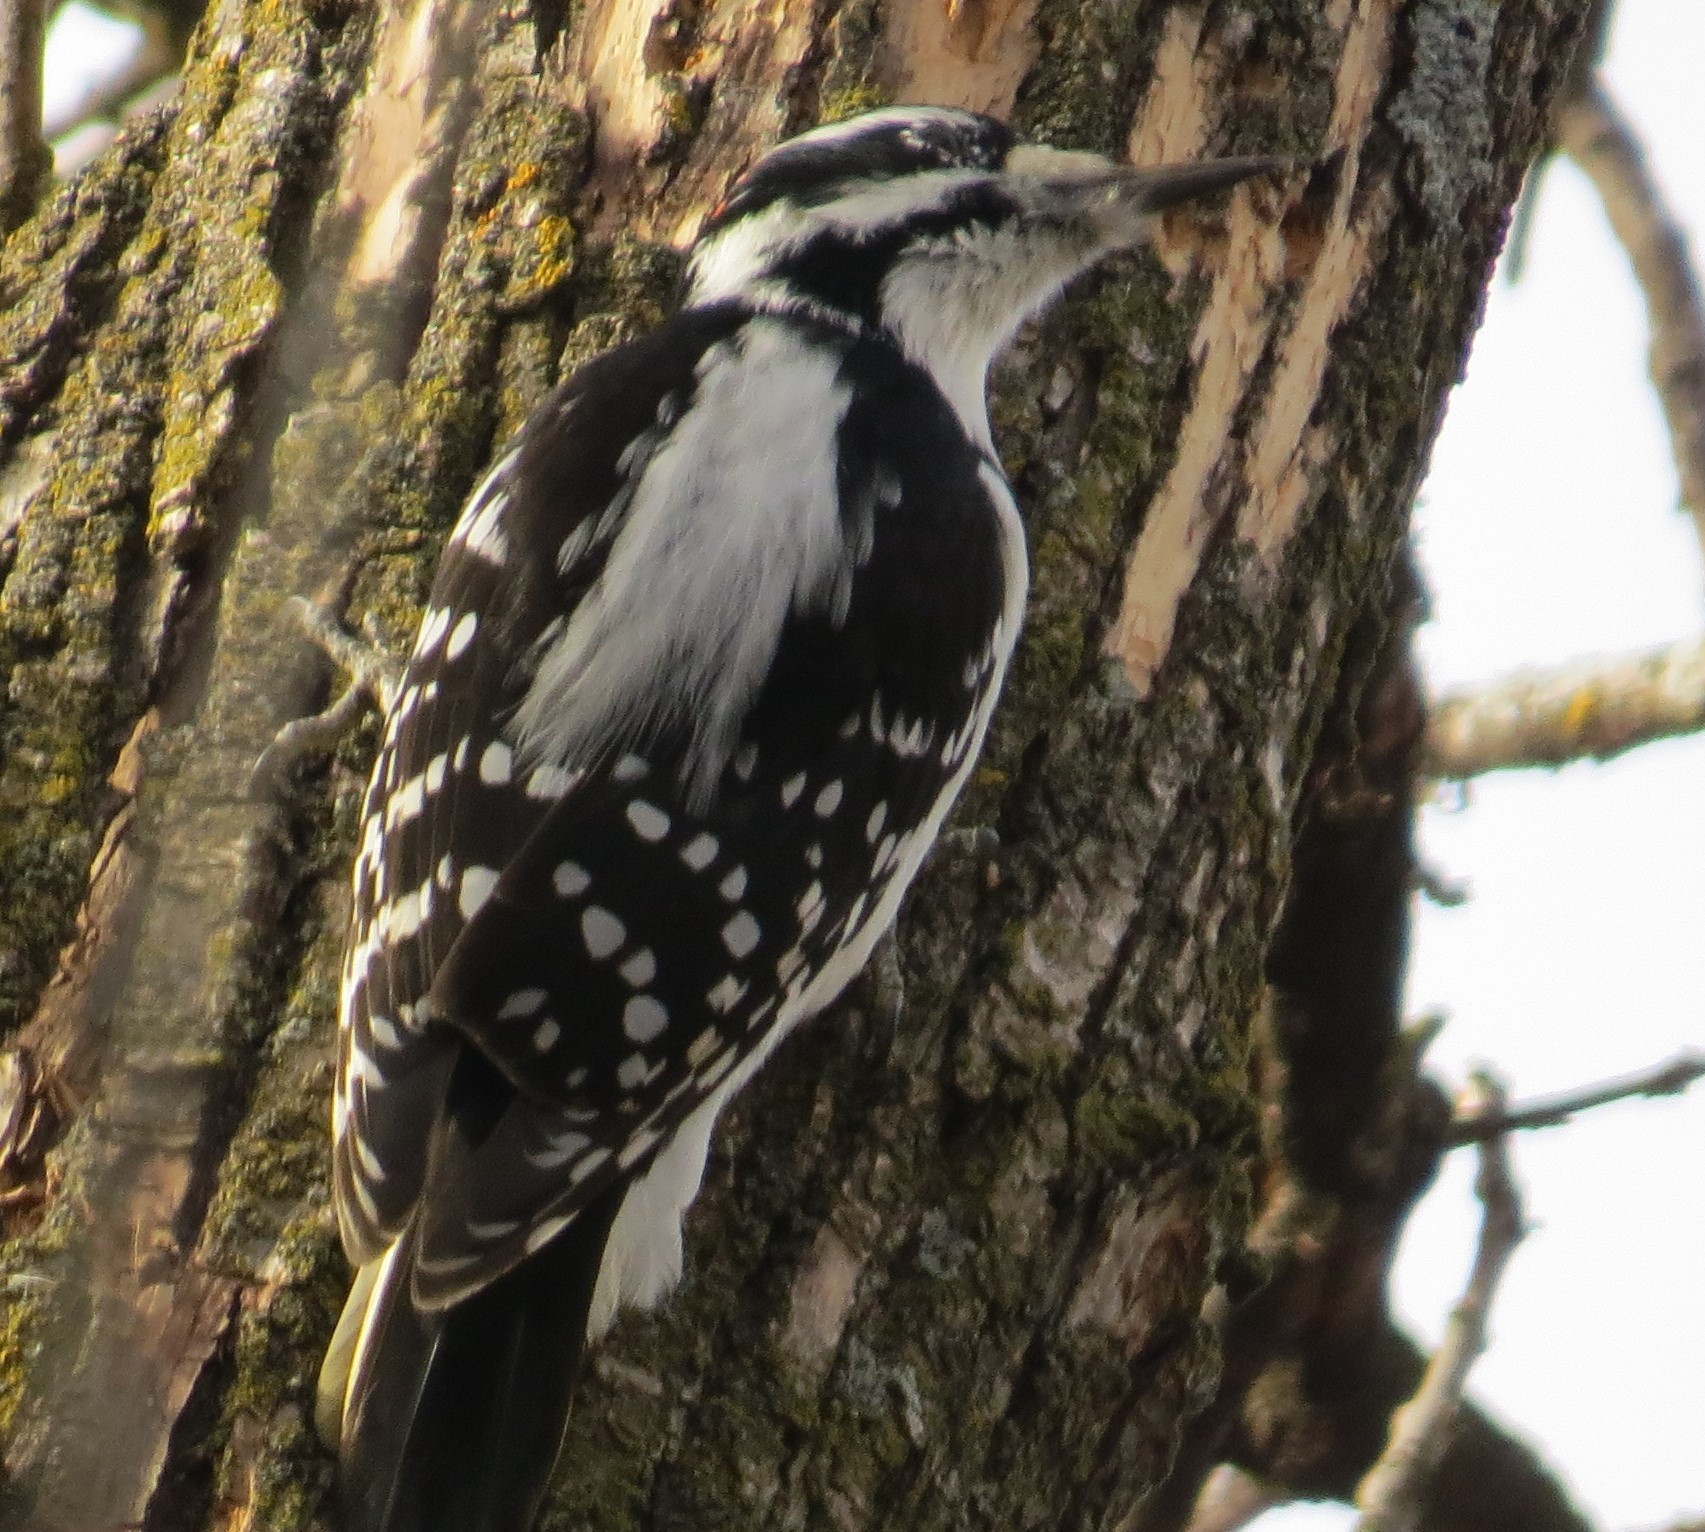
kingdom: Animalia
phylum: Chordata
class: Aves
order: Piciformes
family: Picidae
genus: Leuconotopicus
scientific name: Leuconotopicus villosus
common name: Hairy woodpecker
